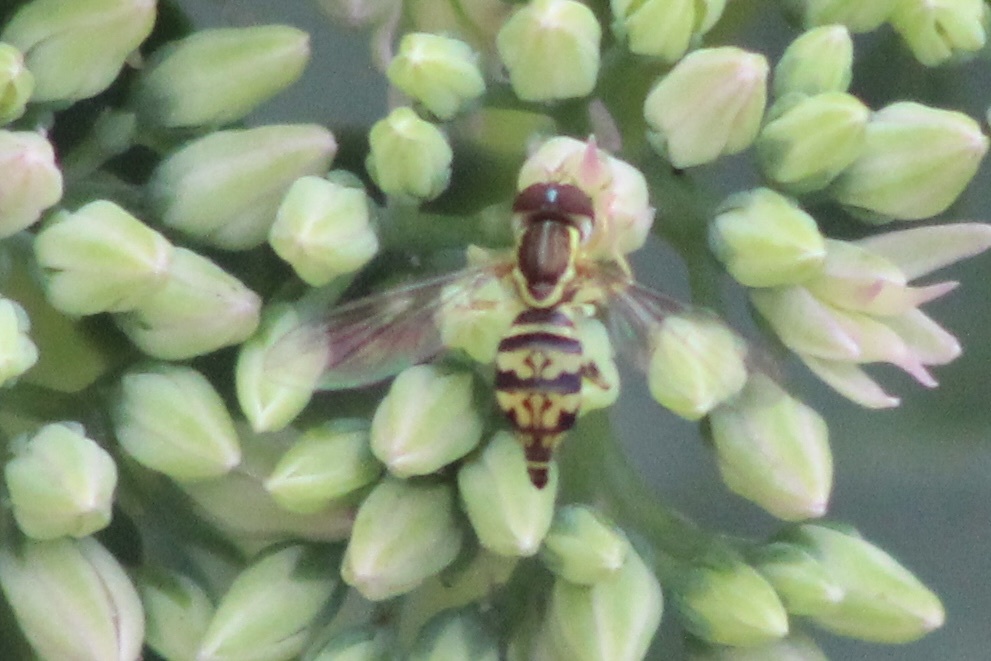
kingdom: Animalia
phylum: Arthropoda
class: Insecta
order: Diptera
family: Syrphidae
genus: Toxomerus
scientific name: Toxomerus geminatus
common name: Eastern calligrapher
